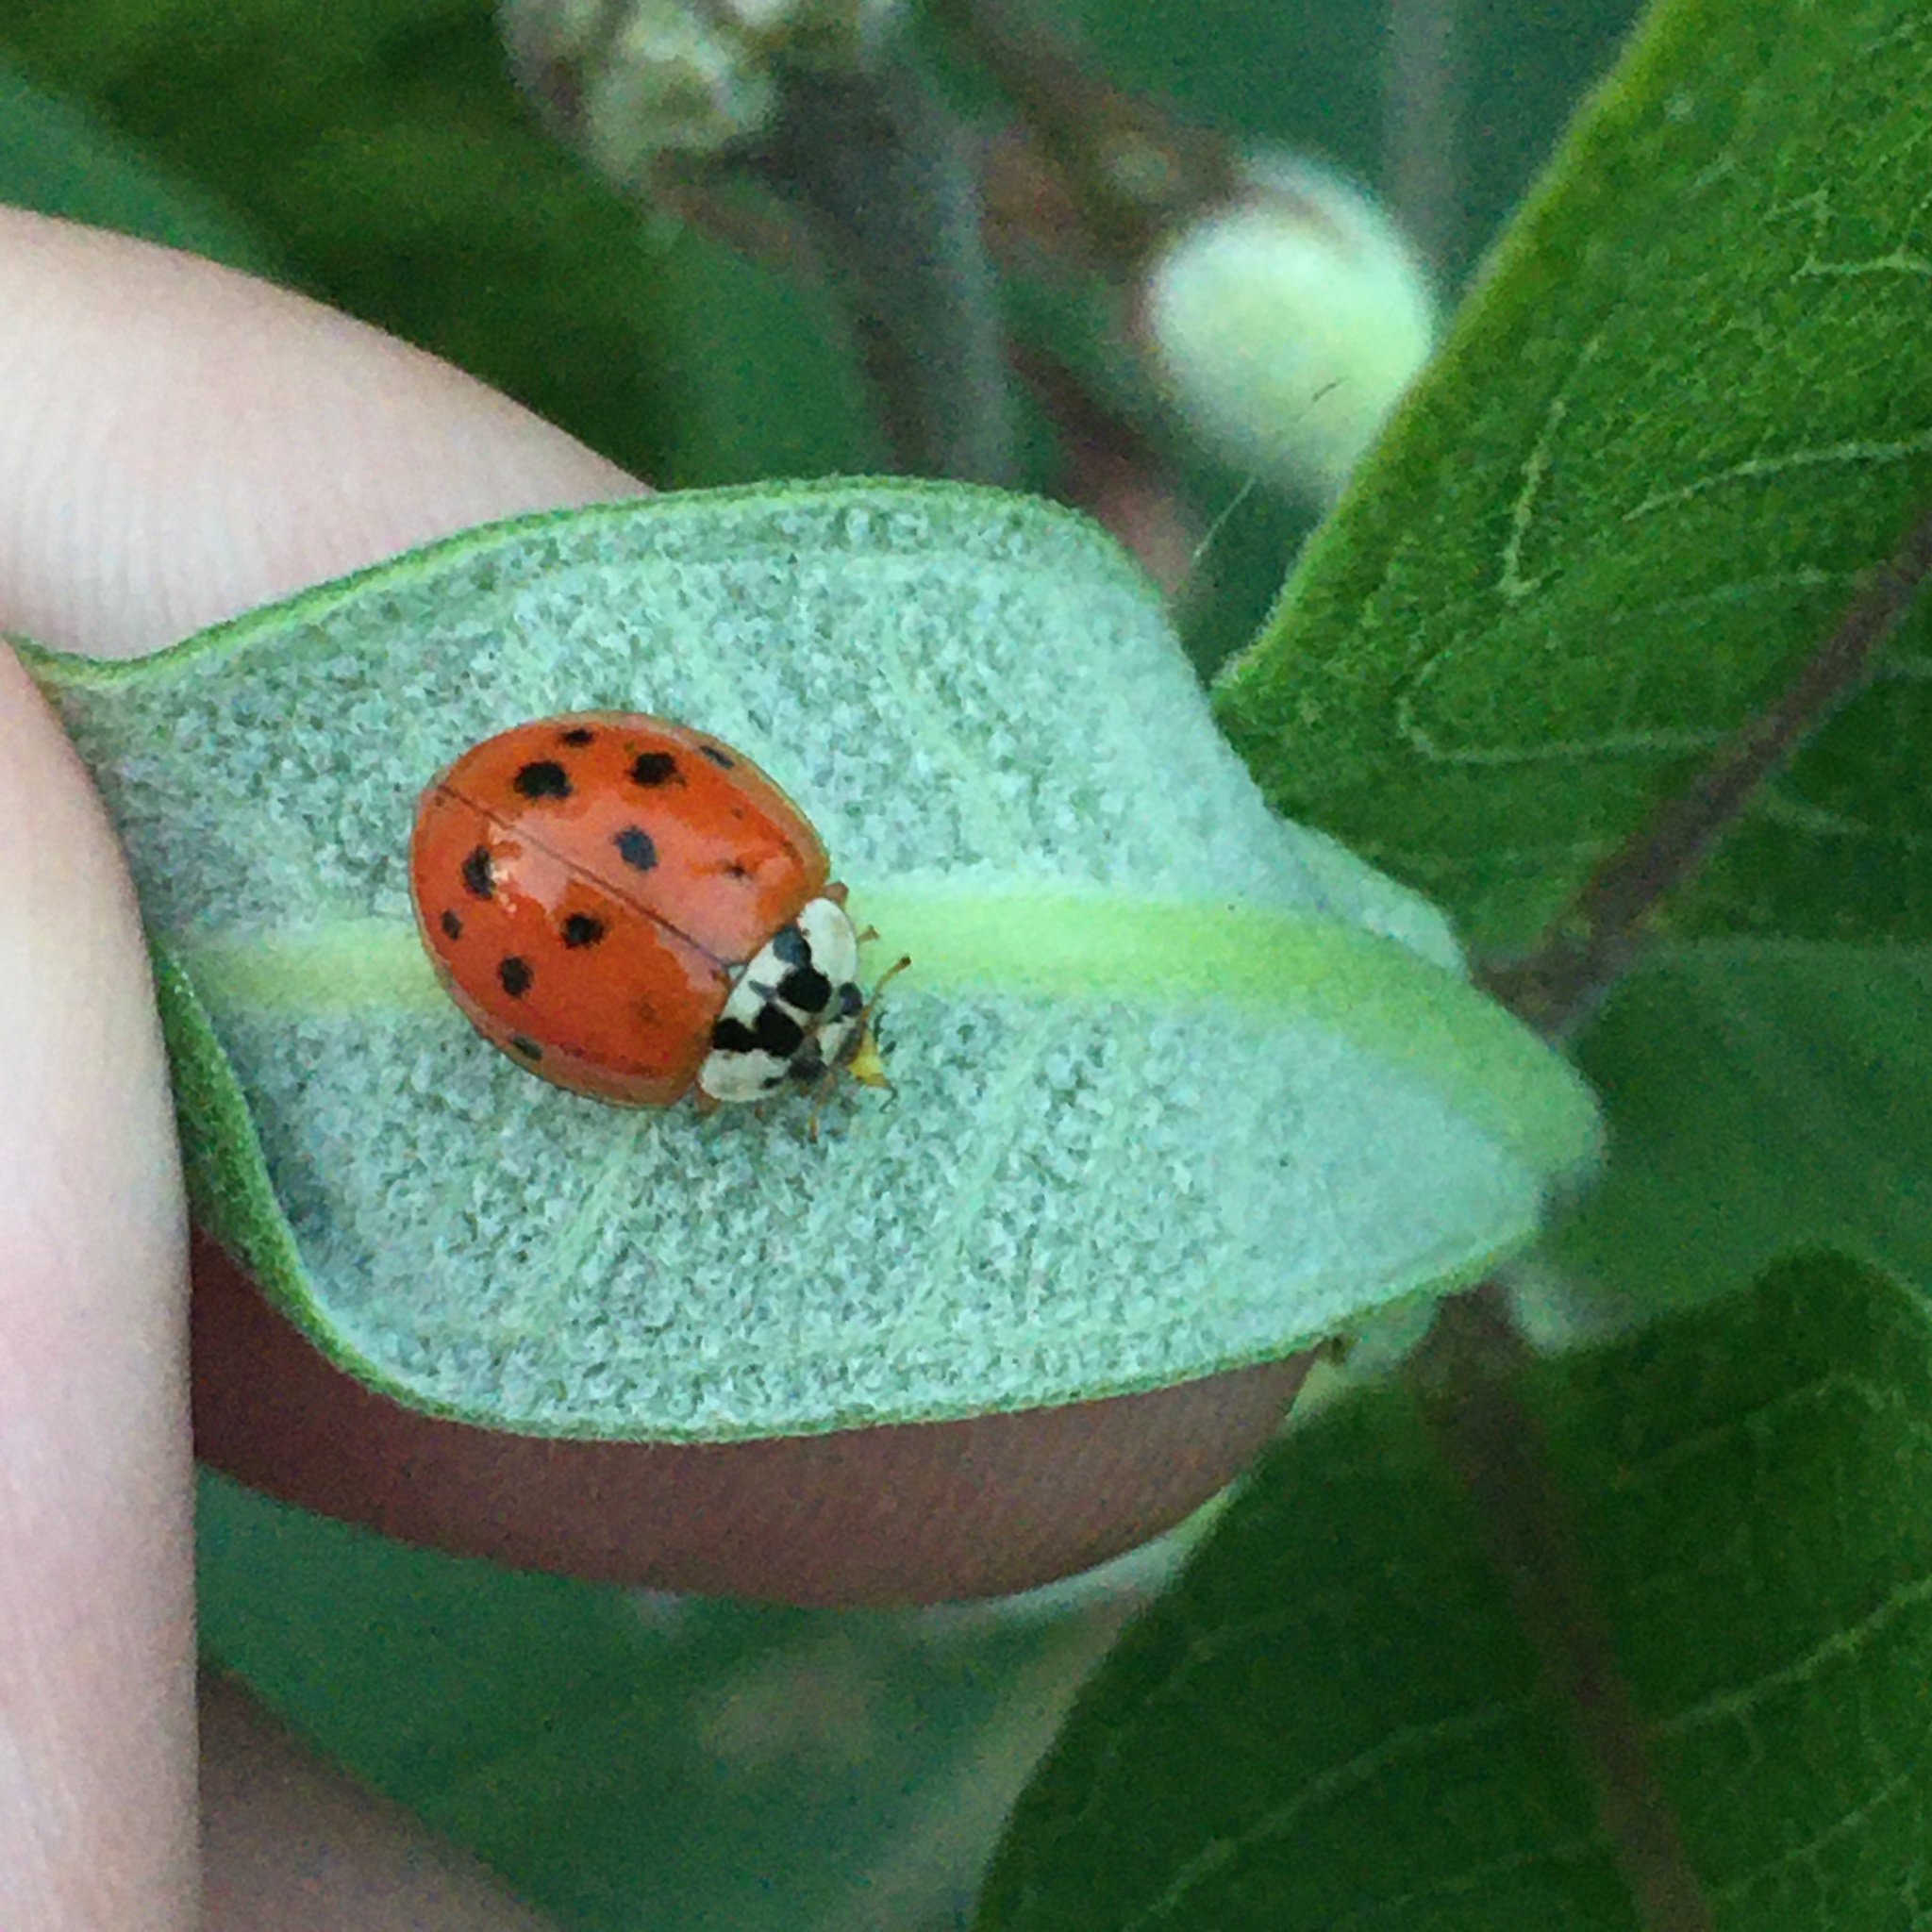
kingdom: Animalia
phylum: Arthropoda
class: Insecta
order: Coleoptera
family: Coccinellidae
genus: Harmonia
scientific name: Harmonia axyridis
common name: Harlequin ladybird
